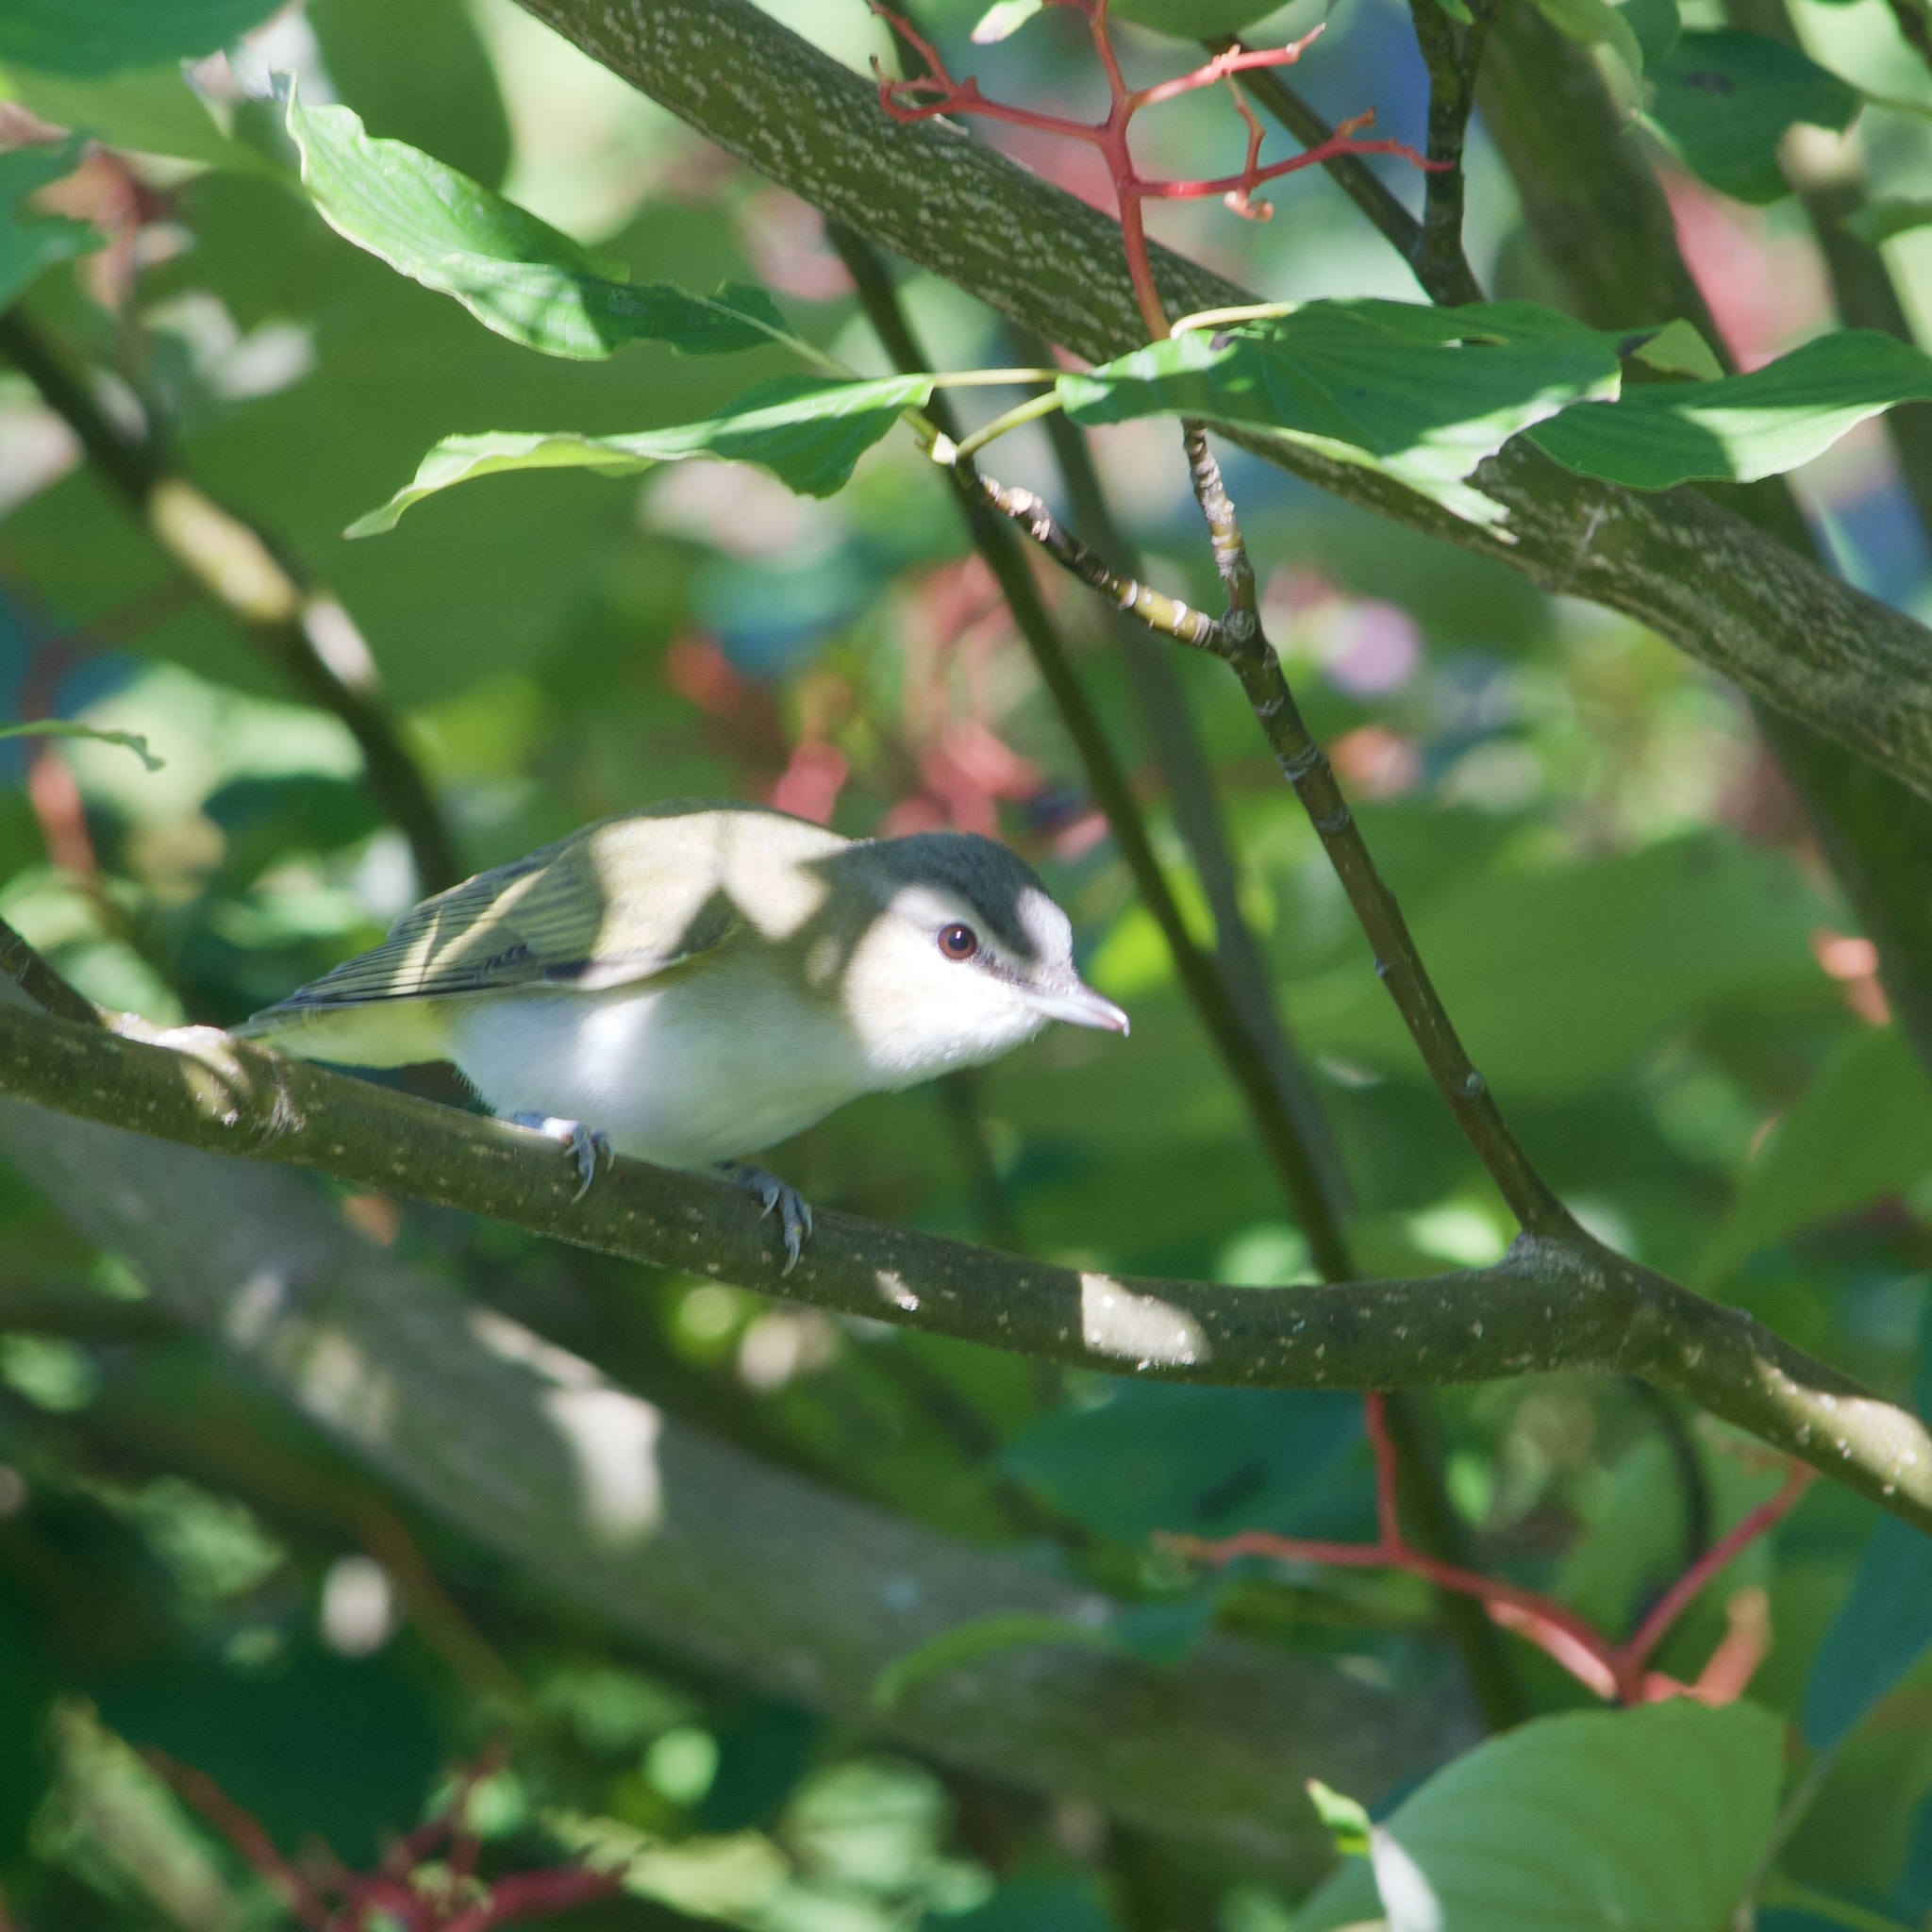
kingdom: Animalia
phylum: Chordata
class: Aves
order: Passeriformes
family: Vireonidae
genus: Vireo
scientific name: Vireo olivaceus
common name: Red-eyed vireo
